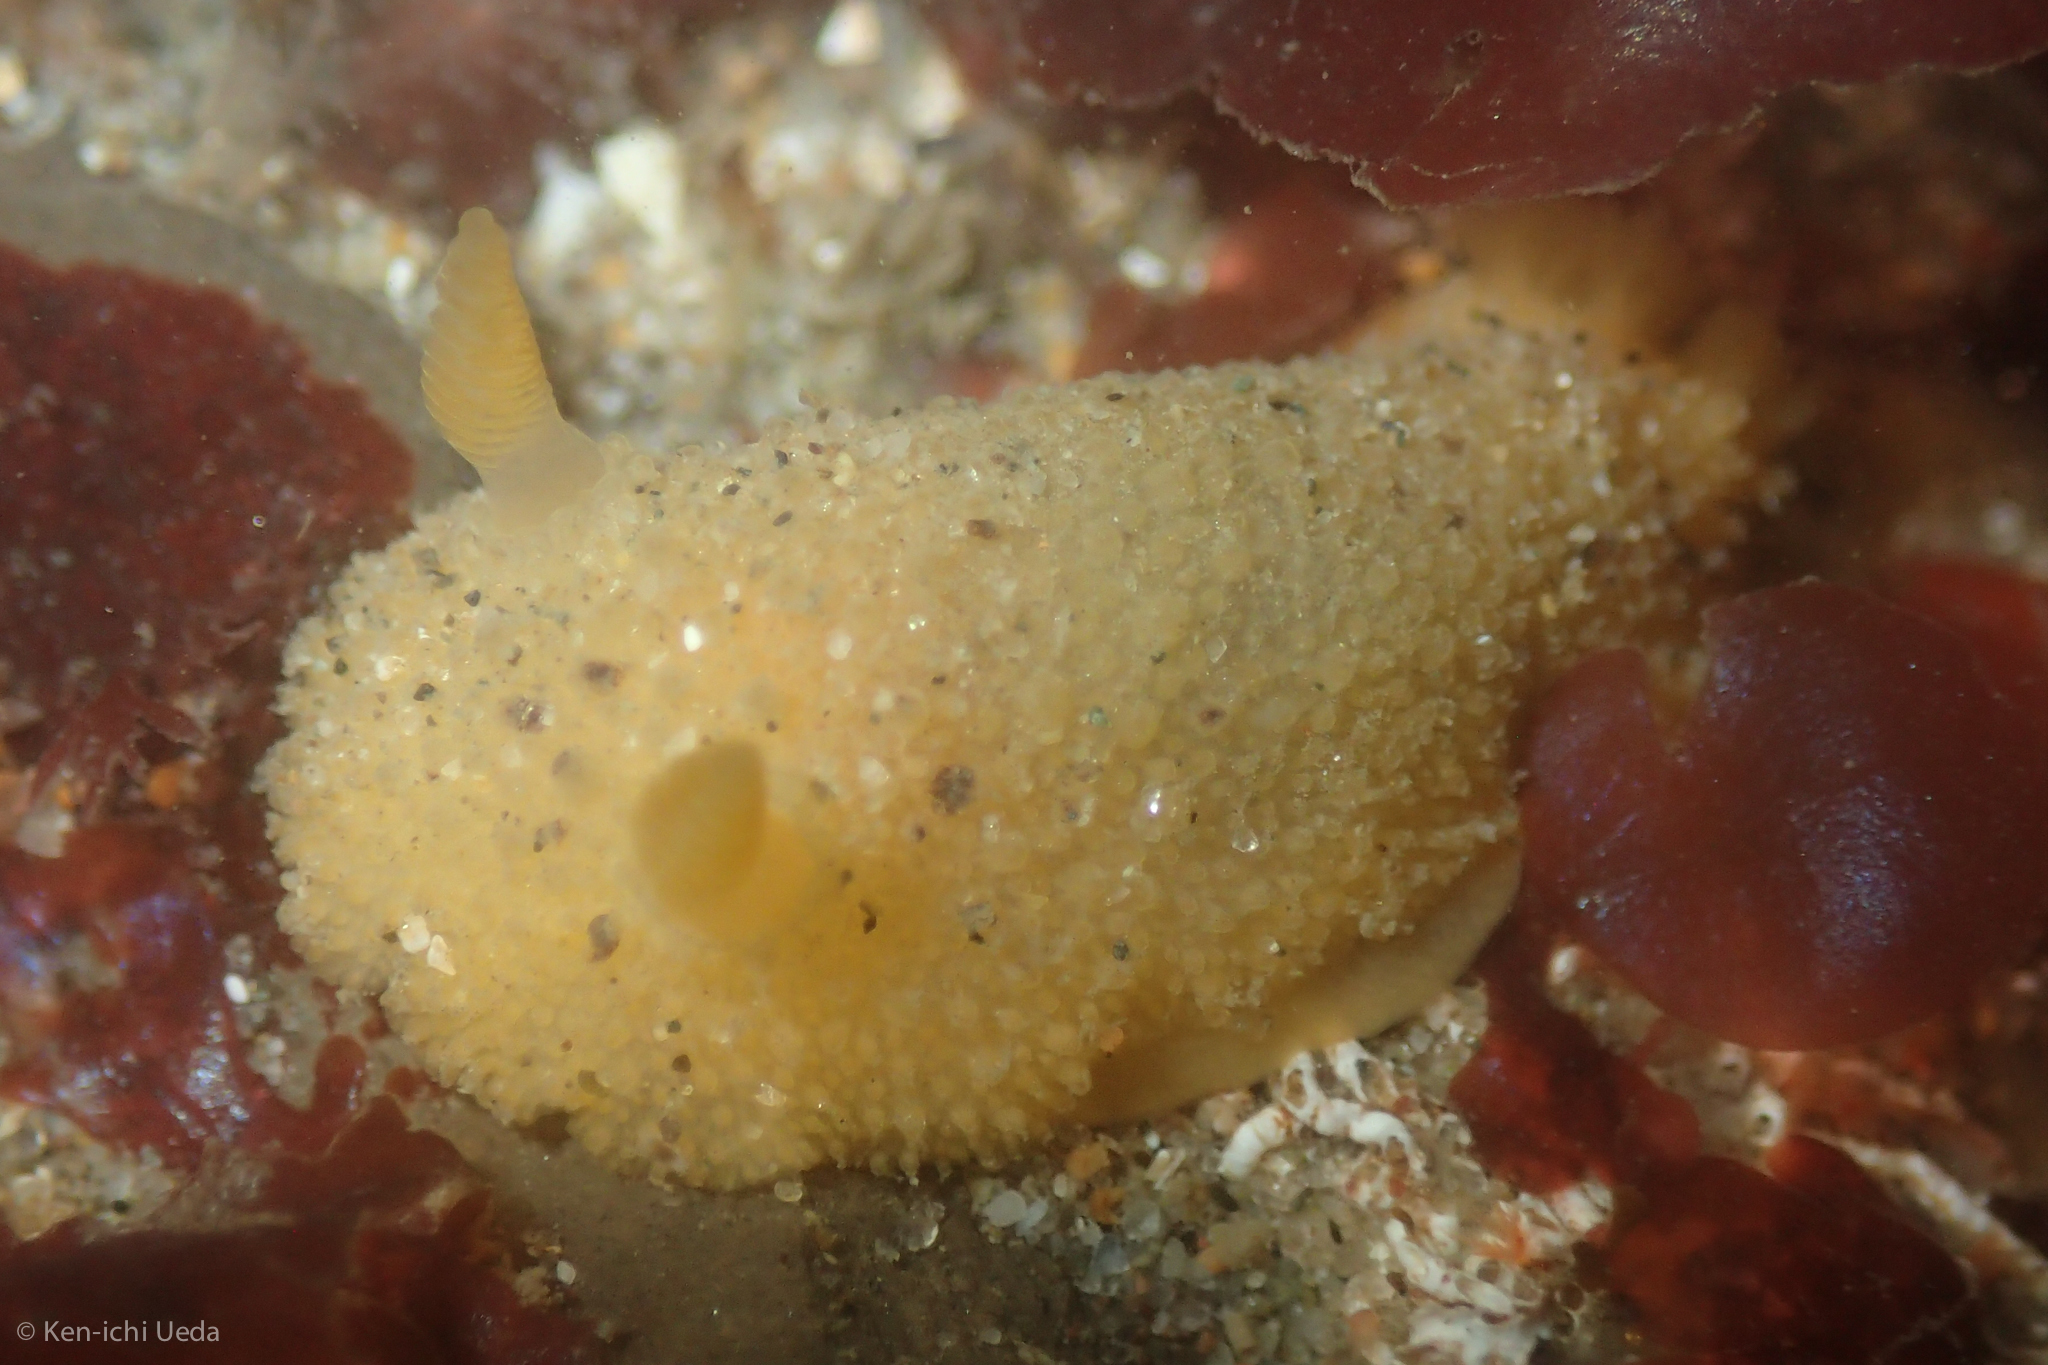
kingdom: Animalia
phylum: Mollusca
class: Gastropoda
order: Nudibranchia
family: Dorididae
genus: Doris
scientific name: Doris montereyensis
